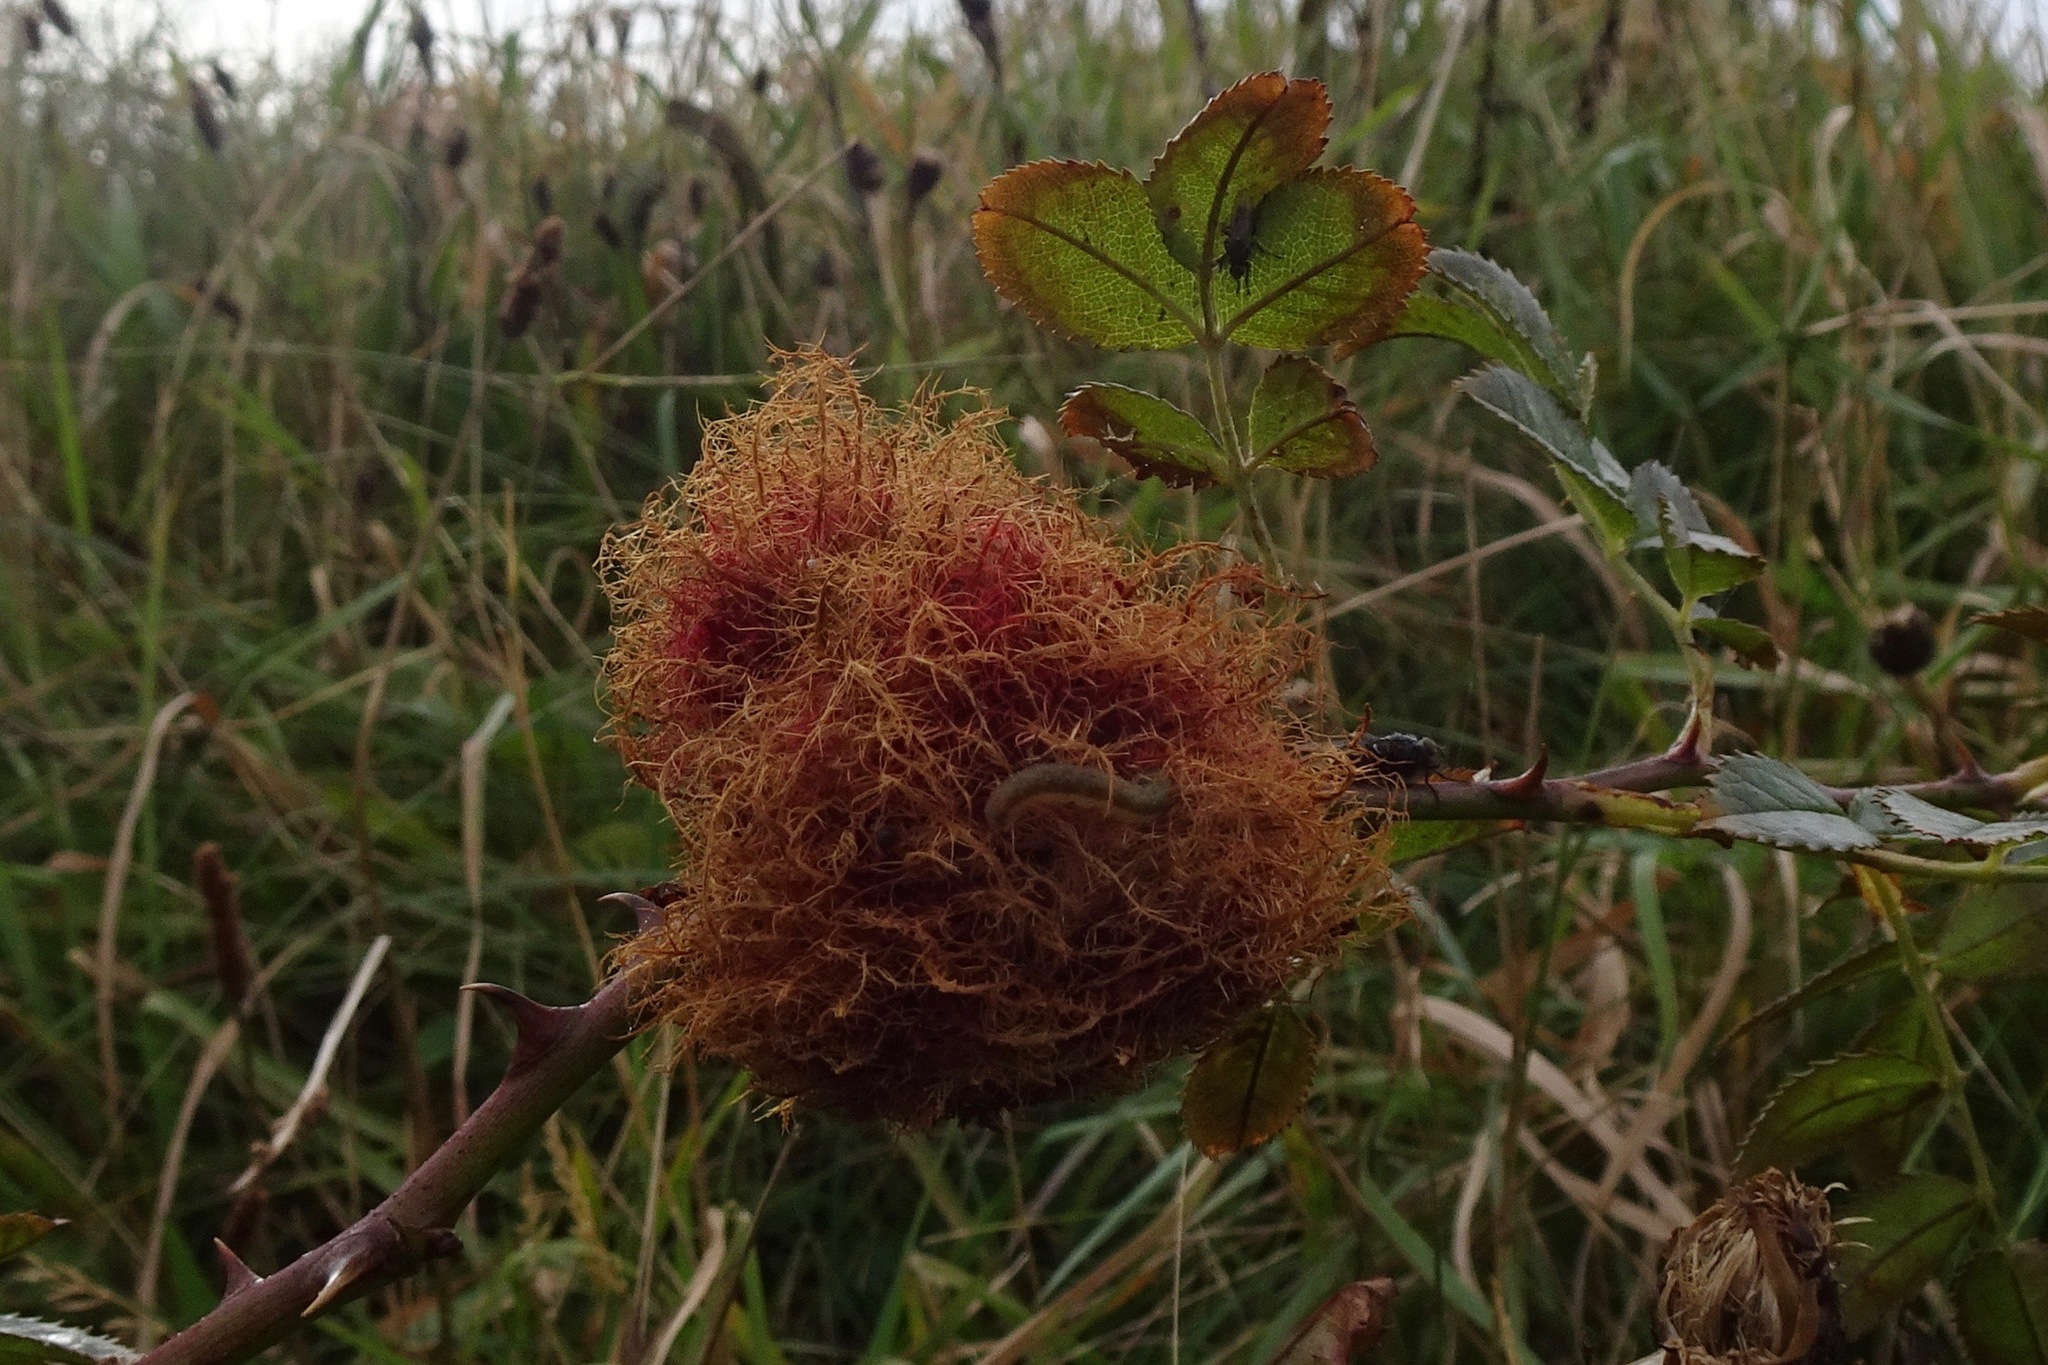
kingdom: Animalia
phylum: Arthropoda
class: Insecta
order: Hymenoptera
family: Cynipidae
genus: Diplolepis
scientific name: Diplolepis rosae
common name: Bedeguar gall
